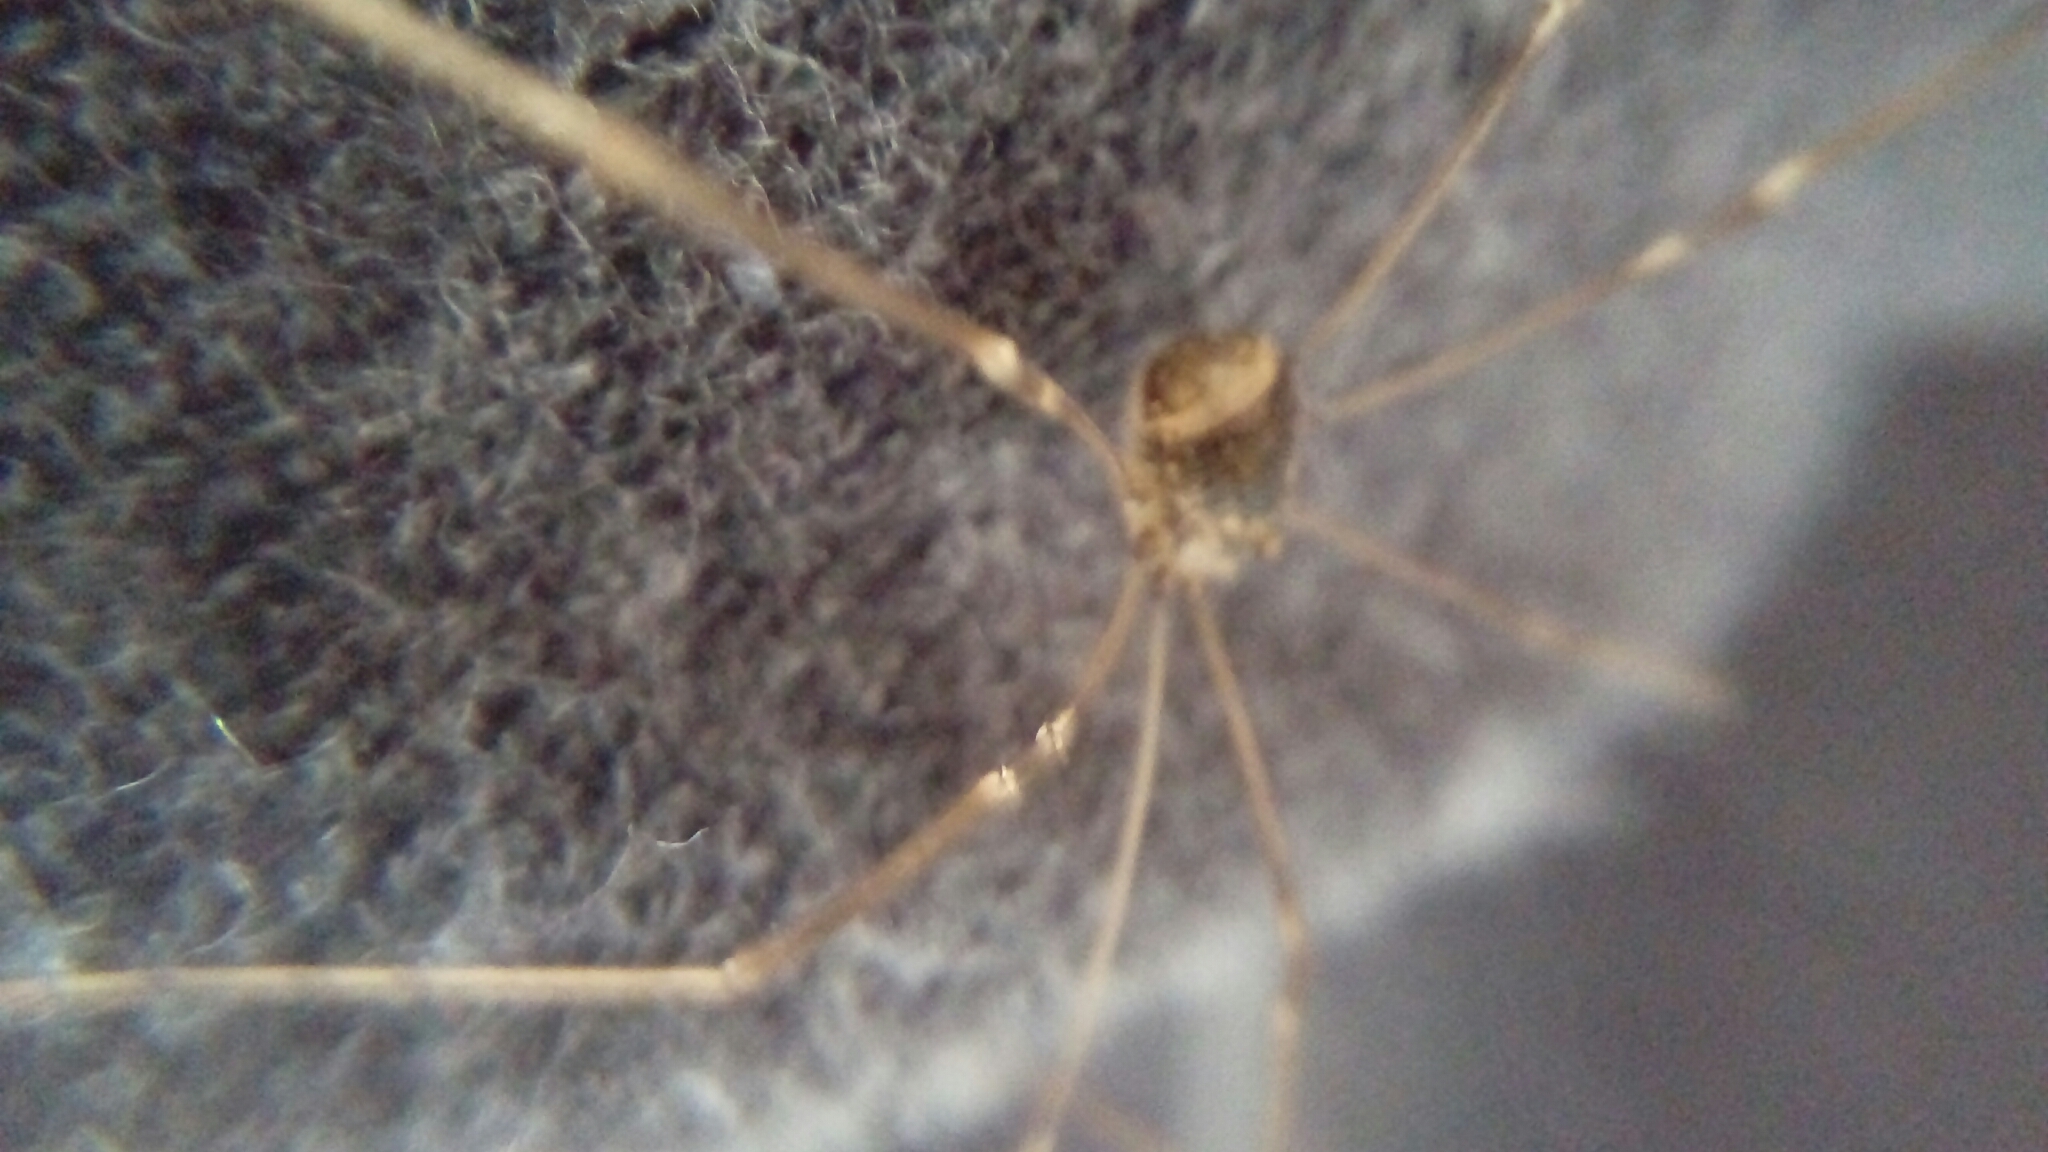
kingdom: Animalia
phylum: Arthropoda
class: Arachnida
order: Opiliones
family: Sclerosomatidae
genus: Leiobunum
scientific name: Leiobunum blackwalli
